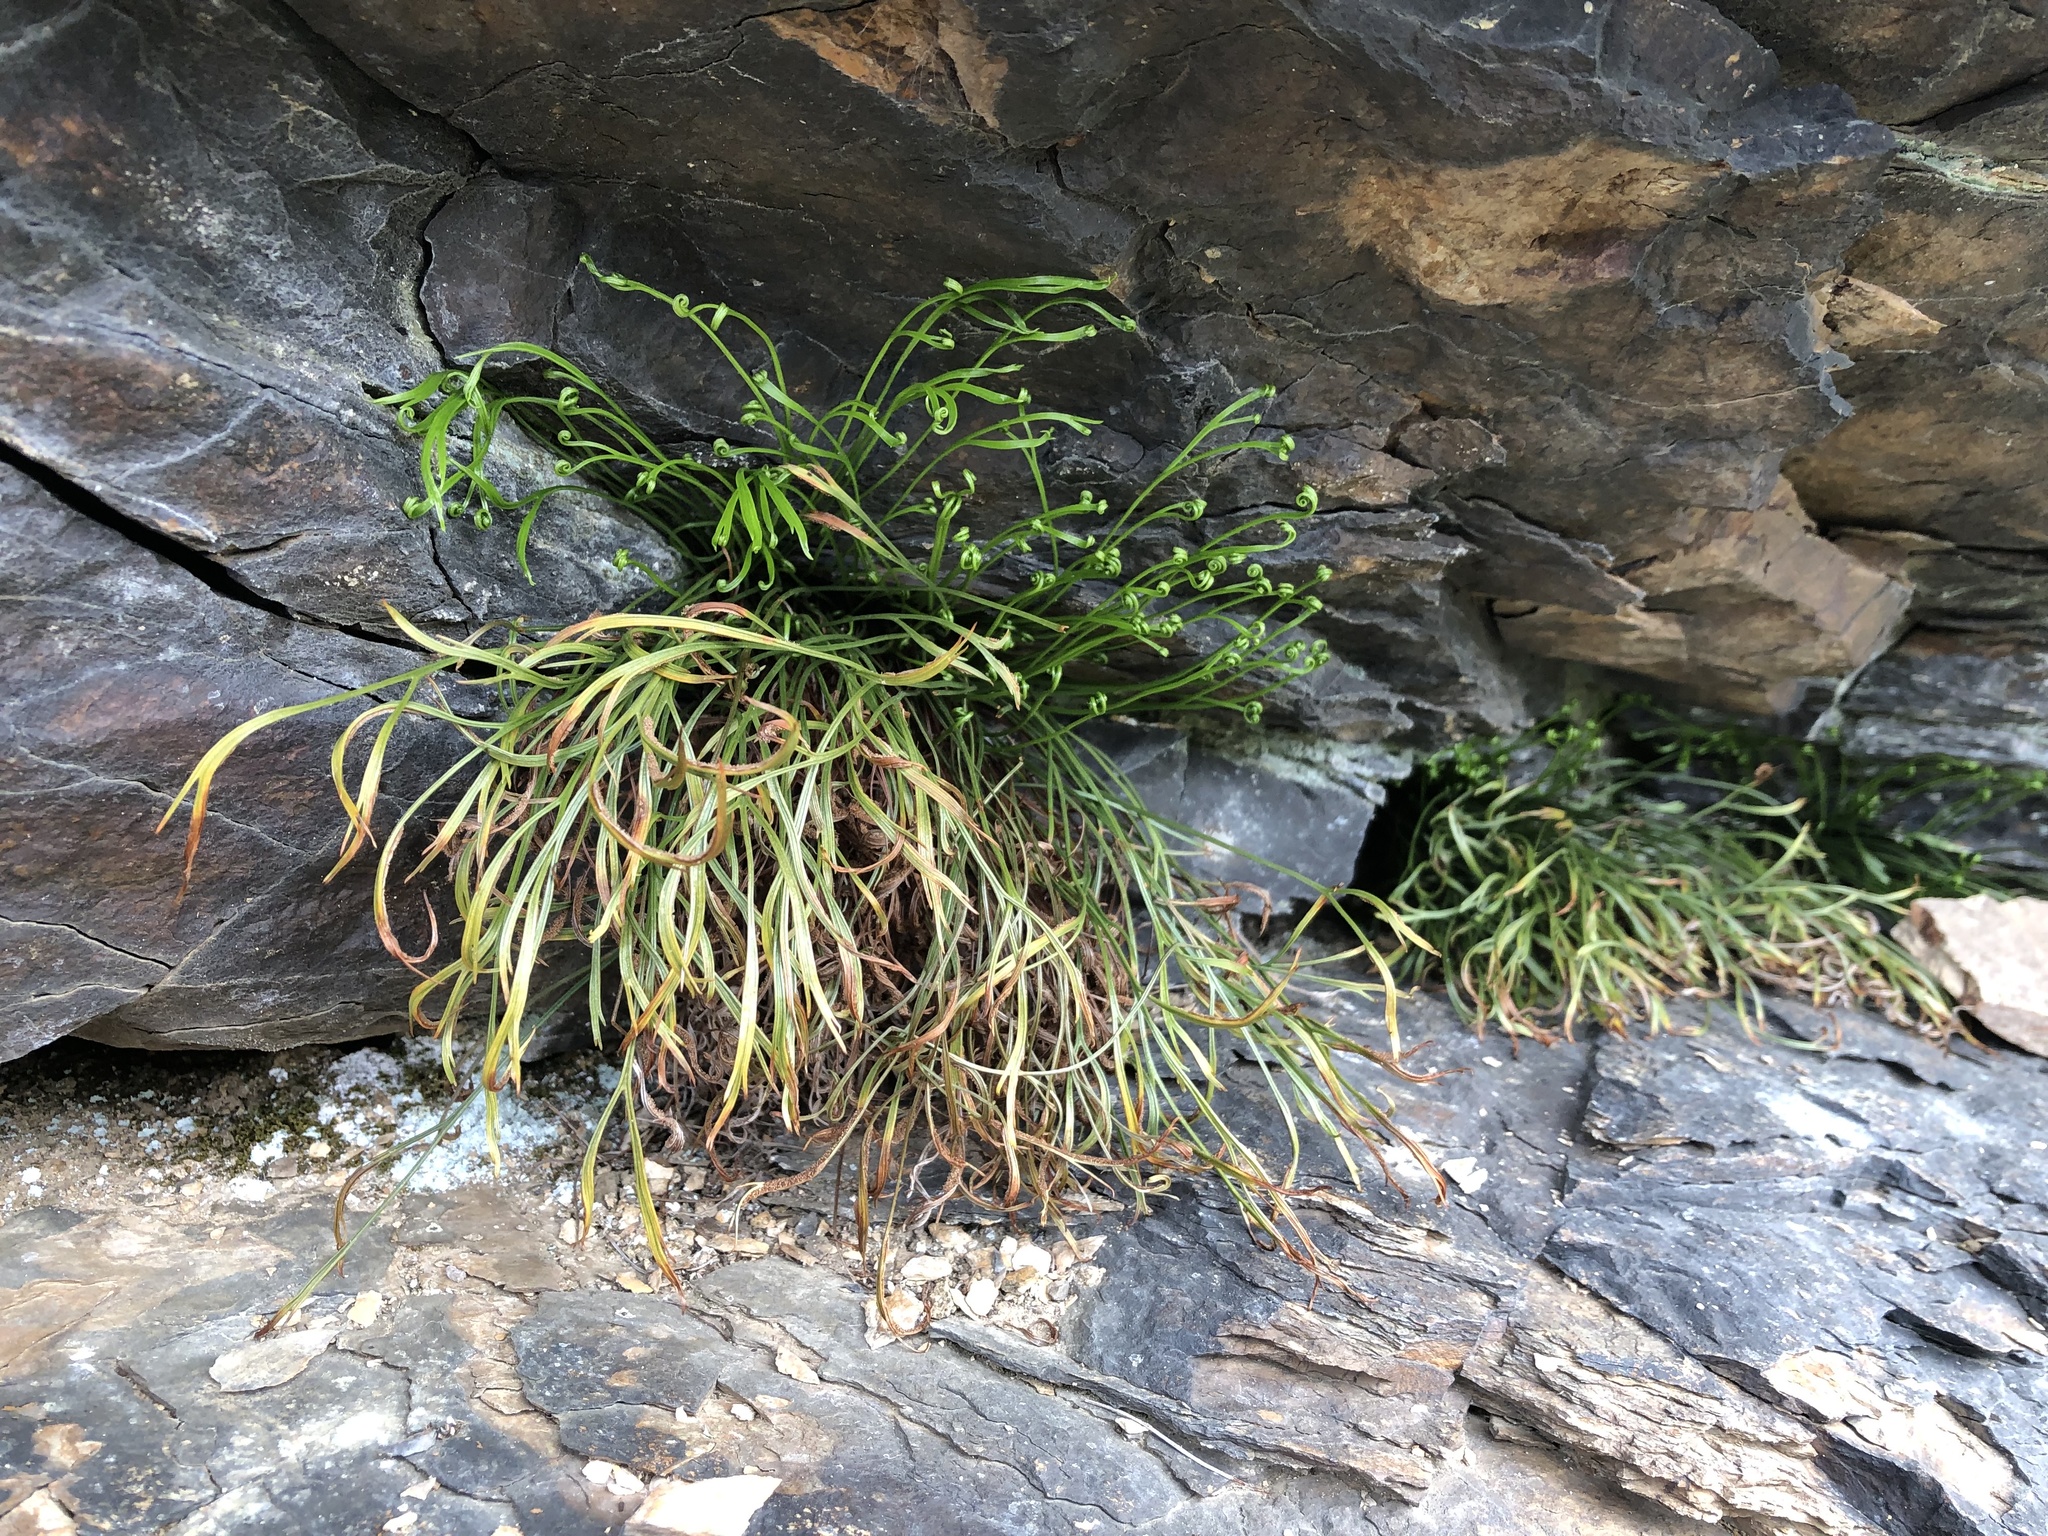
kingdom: Plantae
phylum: Tracheophyta
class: Polypodiopsida
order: Polypodiales
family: Aspleniaceae
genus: Asplenium
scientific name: Asplenium septentrionale
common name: Forked spleenwort
